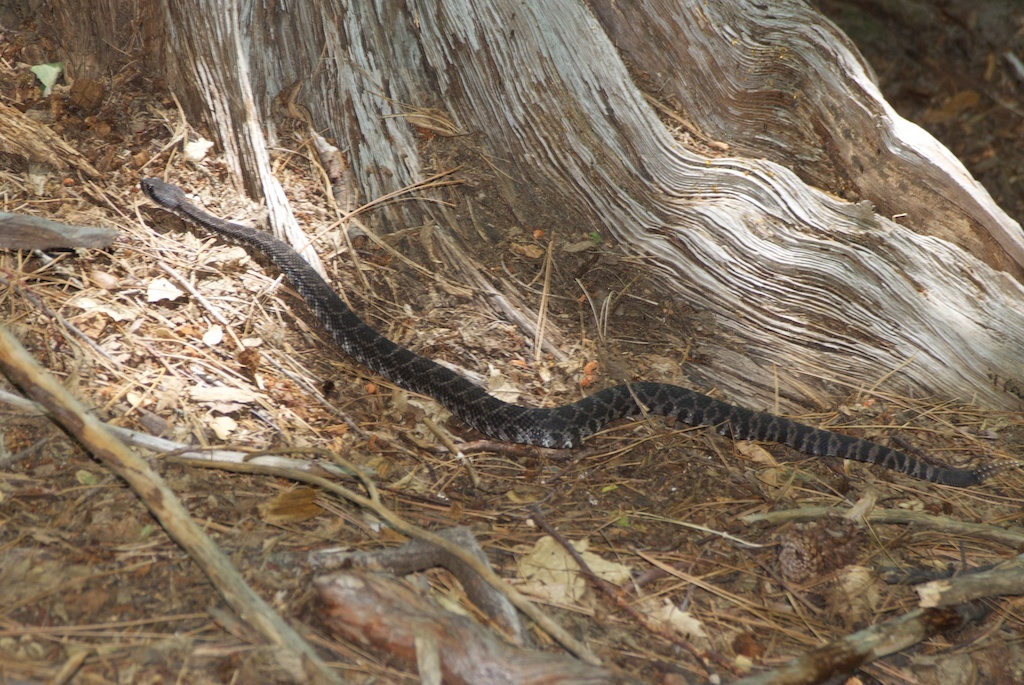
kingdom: Animalia
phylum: Chordata
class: Squamata
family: Viperidae
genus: Crotalus
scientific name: Crotalus oreganus
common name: Abyssus
